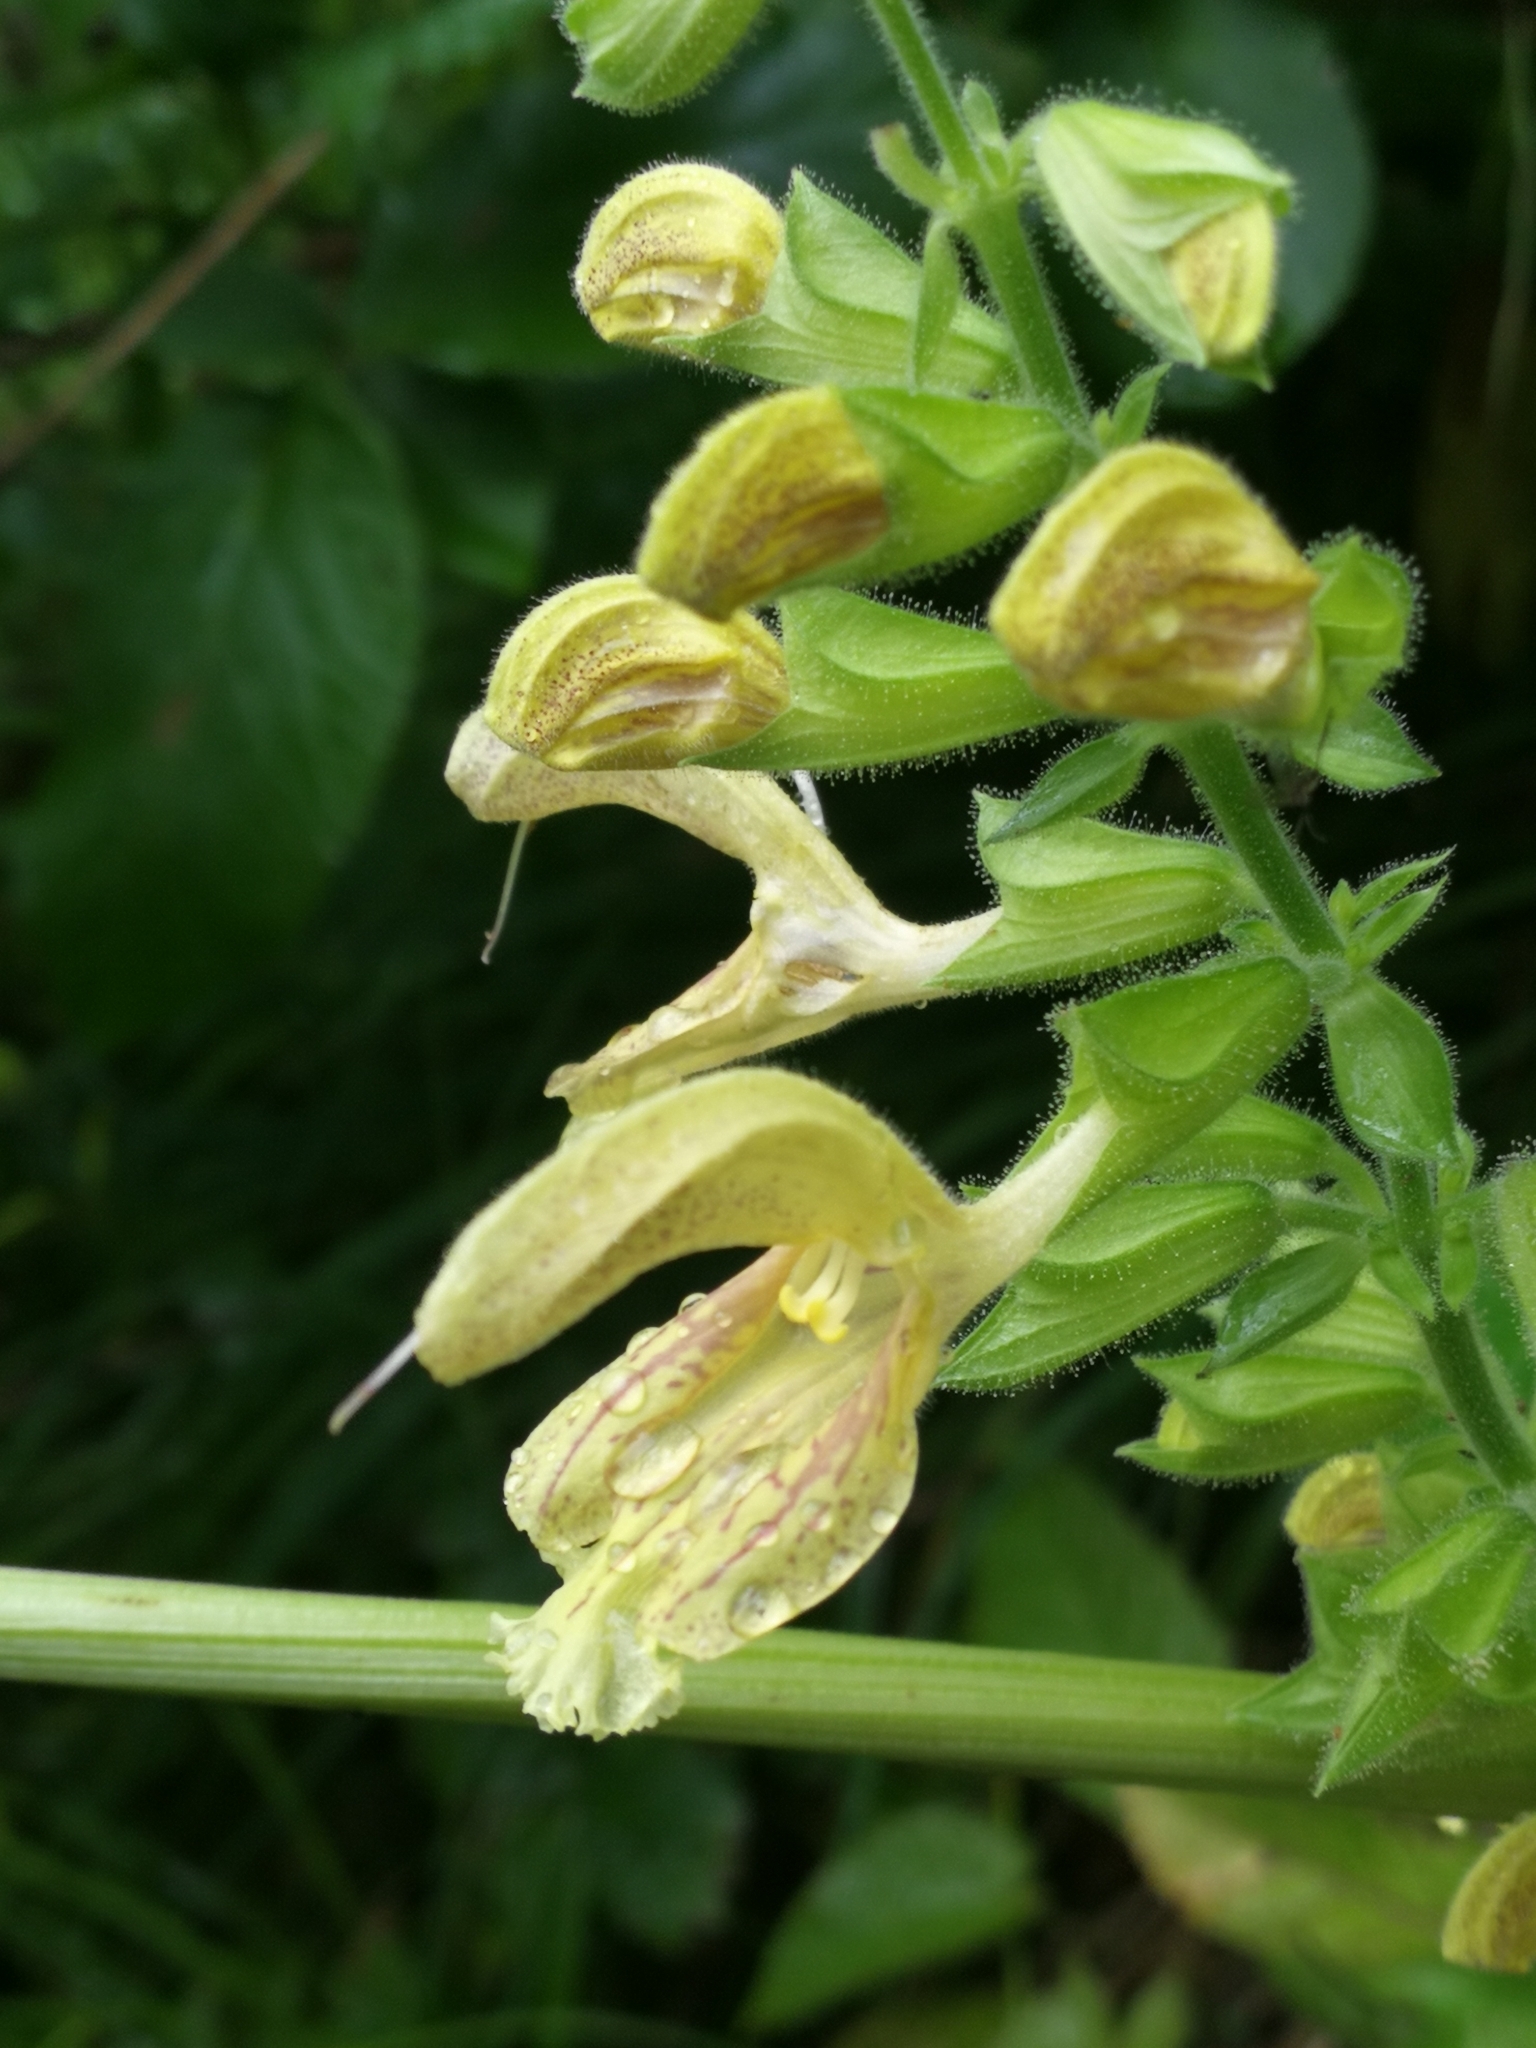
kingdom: Plantae
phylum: Tracheophyta
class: Magnoliopsida
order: Lamiales
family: Lamiaceae
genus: Salvia
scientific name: Salvia glutinosa
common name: Sticky clary
